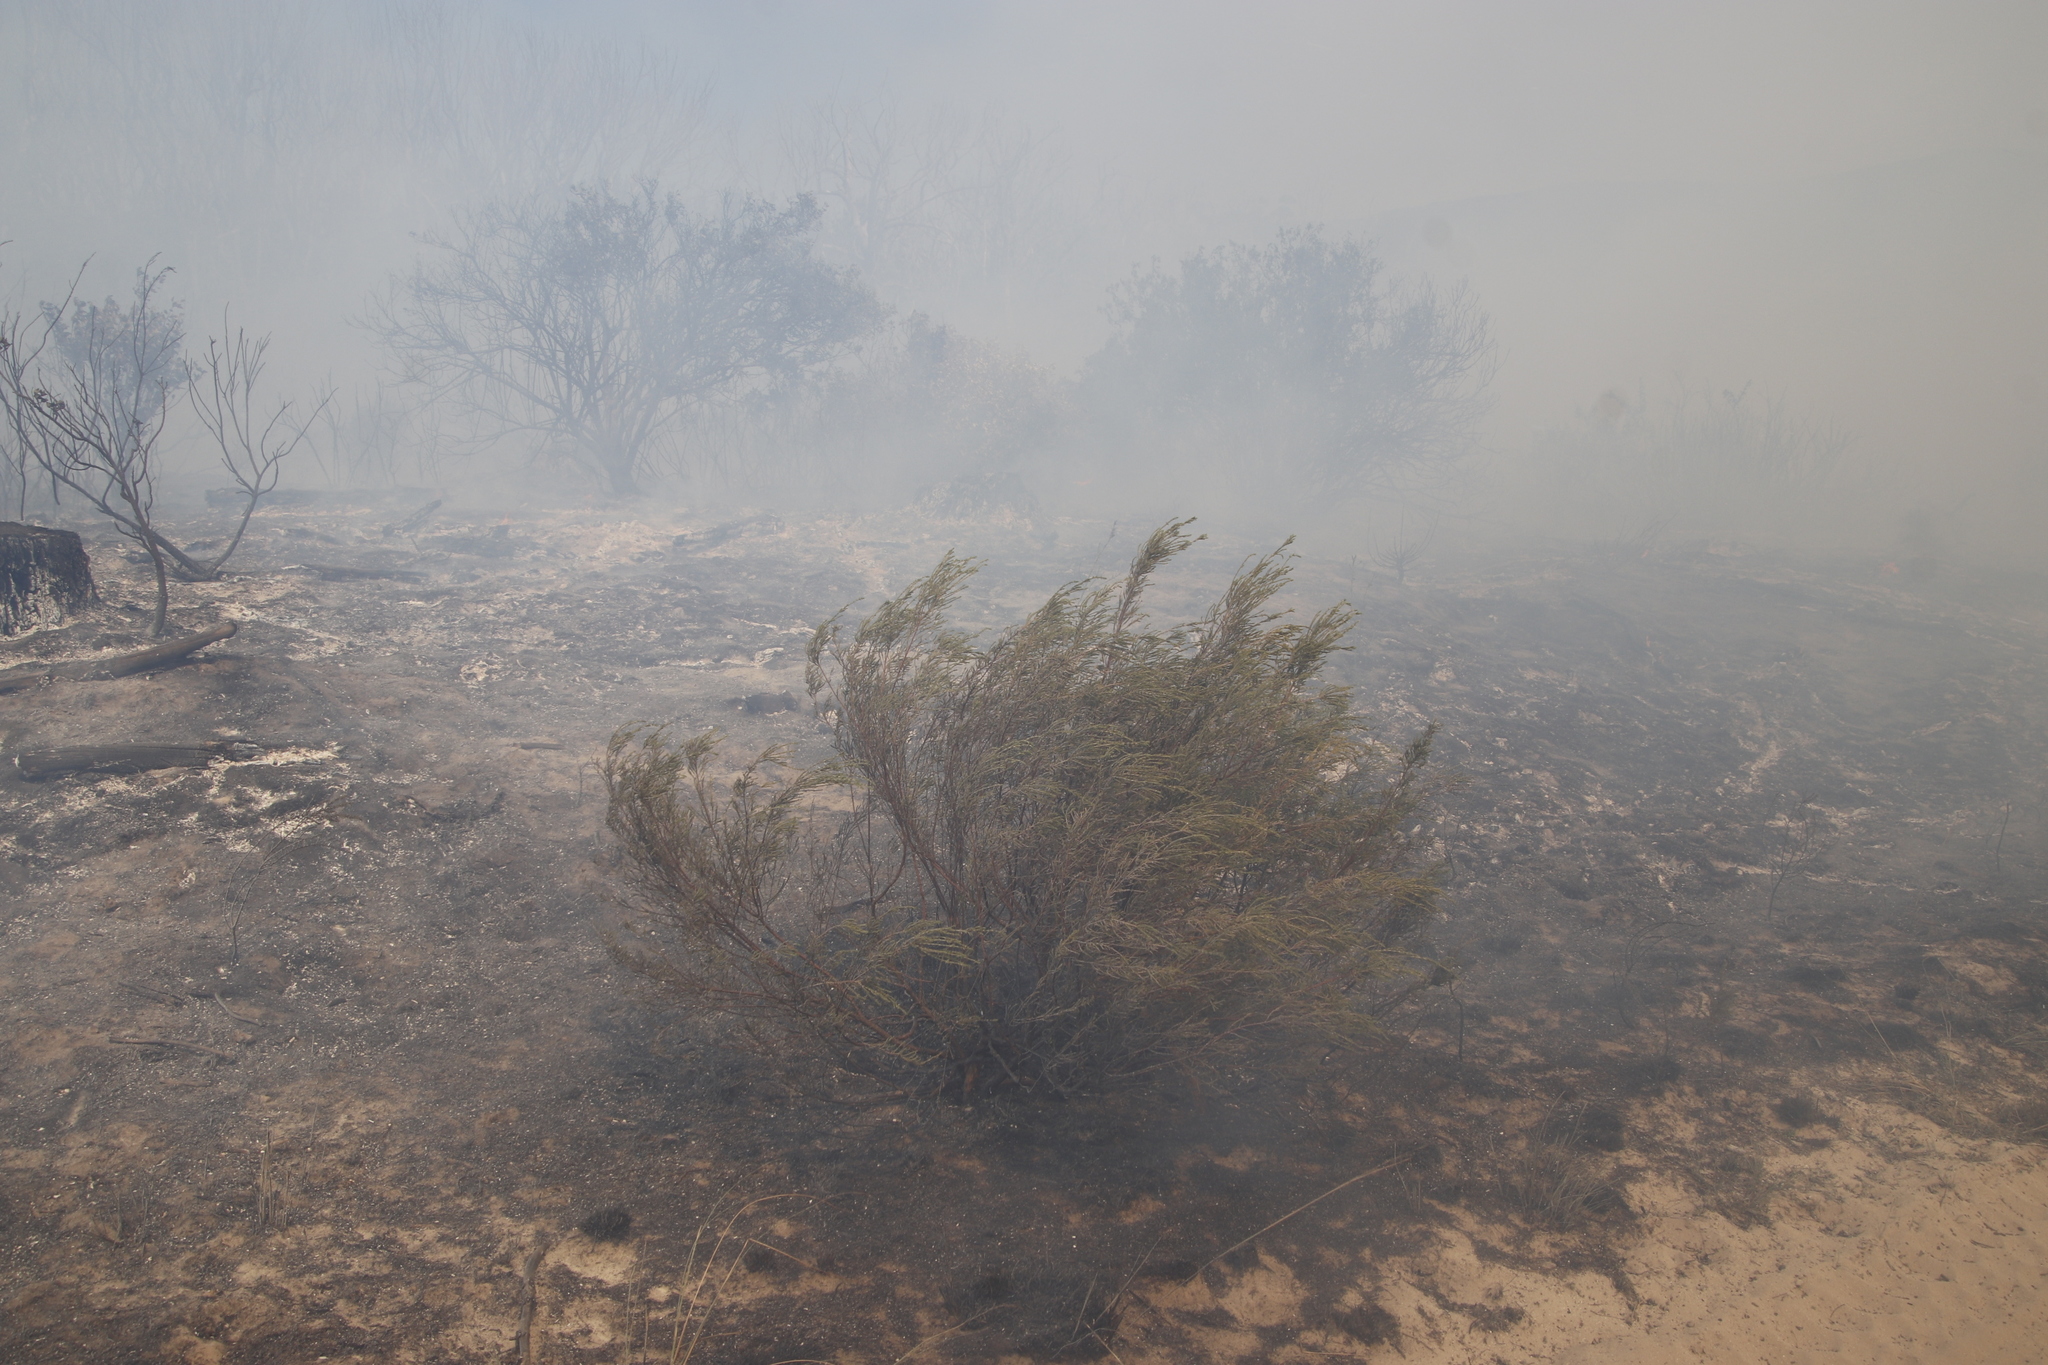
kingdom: Plantae
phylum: Tracheophyta
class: Magnoliopsida
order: Malvales
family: Thymelaeaceae
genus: Passerina
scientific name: Passerina corymbosa
